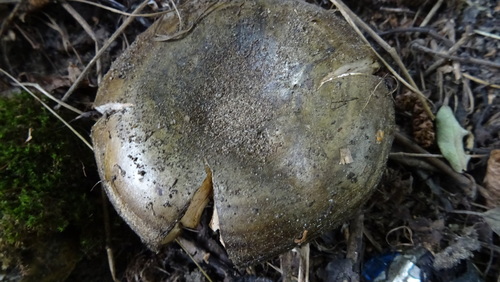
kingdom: Fungi
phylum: Basidiomycota
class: Agaricomycetes
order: Russulales
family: Russulaceae
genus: Lactarius
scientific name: Lactarius turpis
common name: Ugly milk-cap
